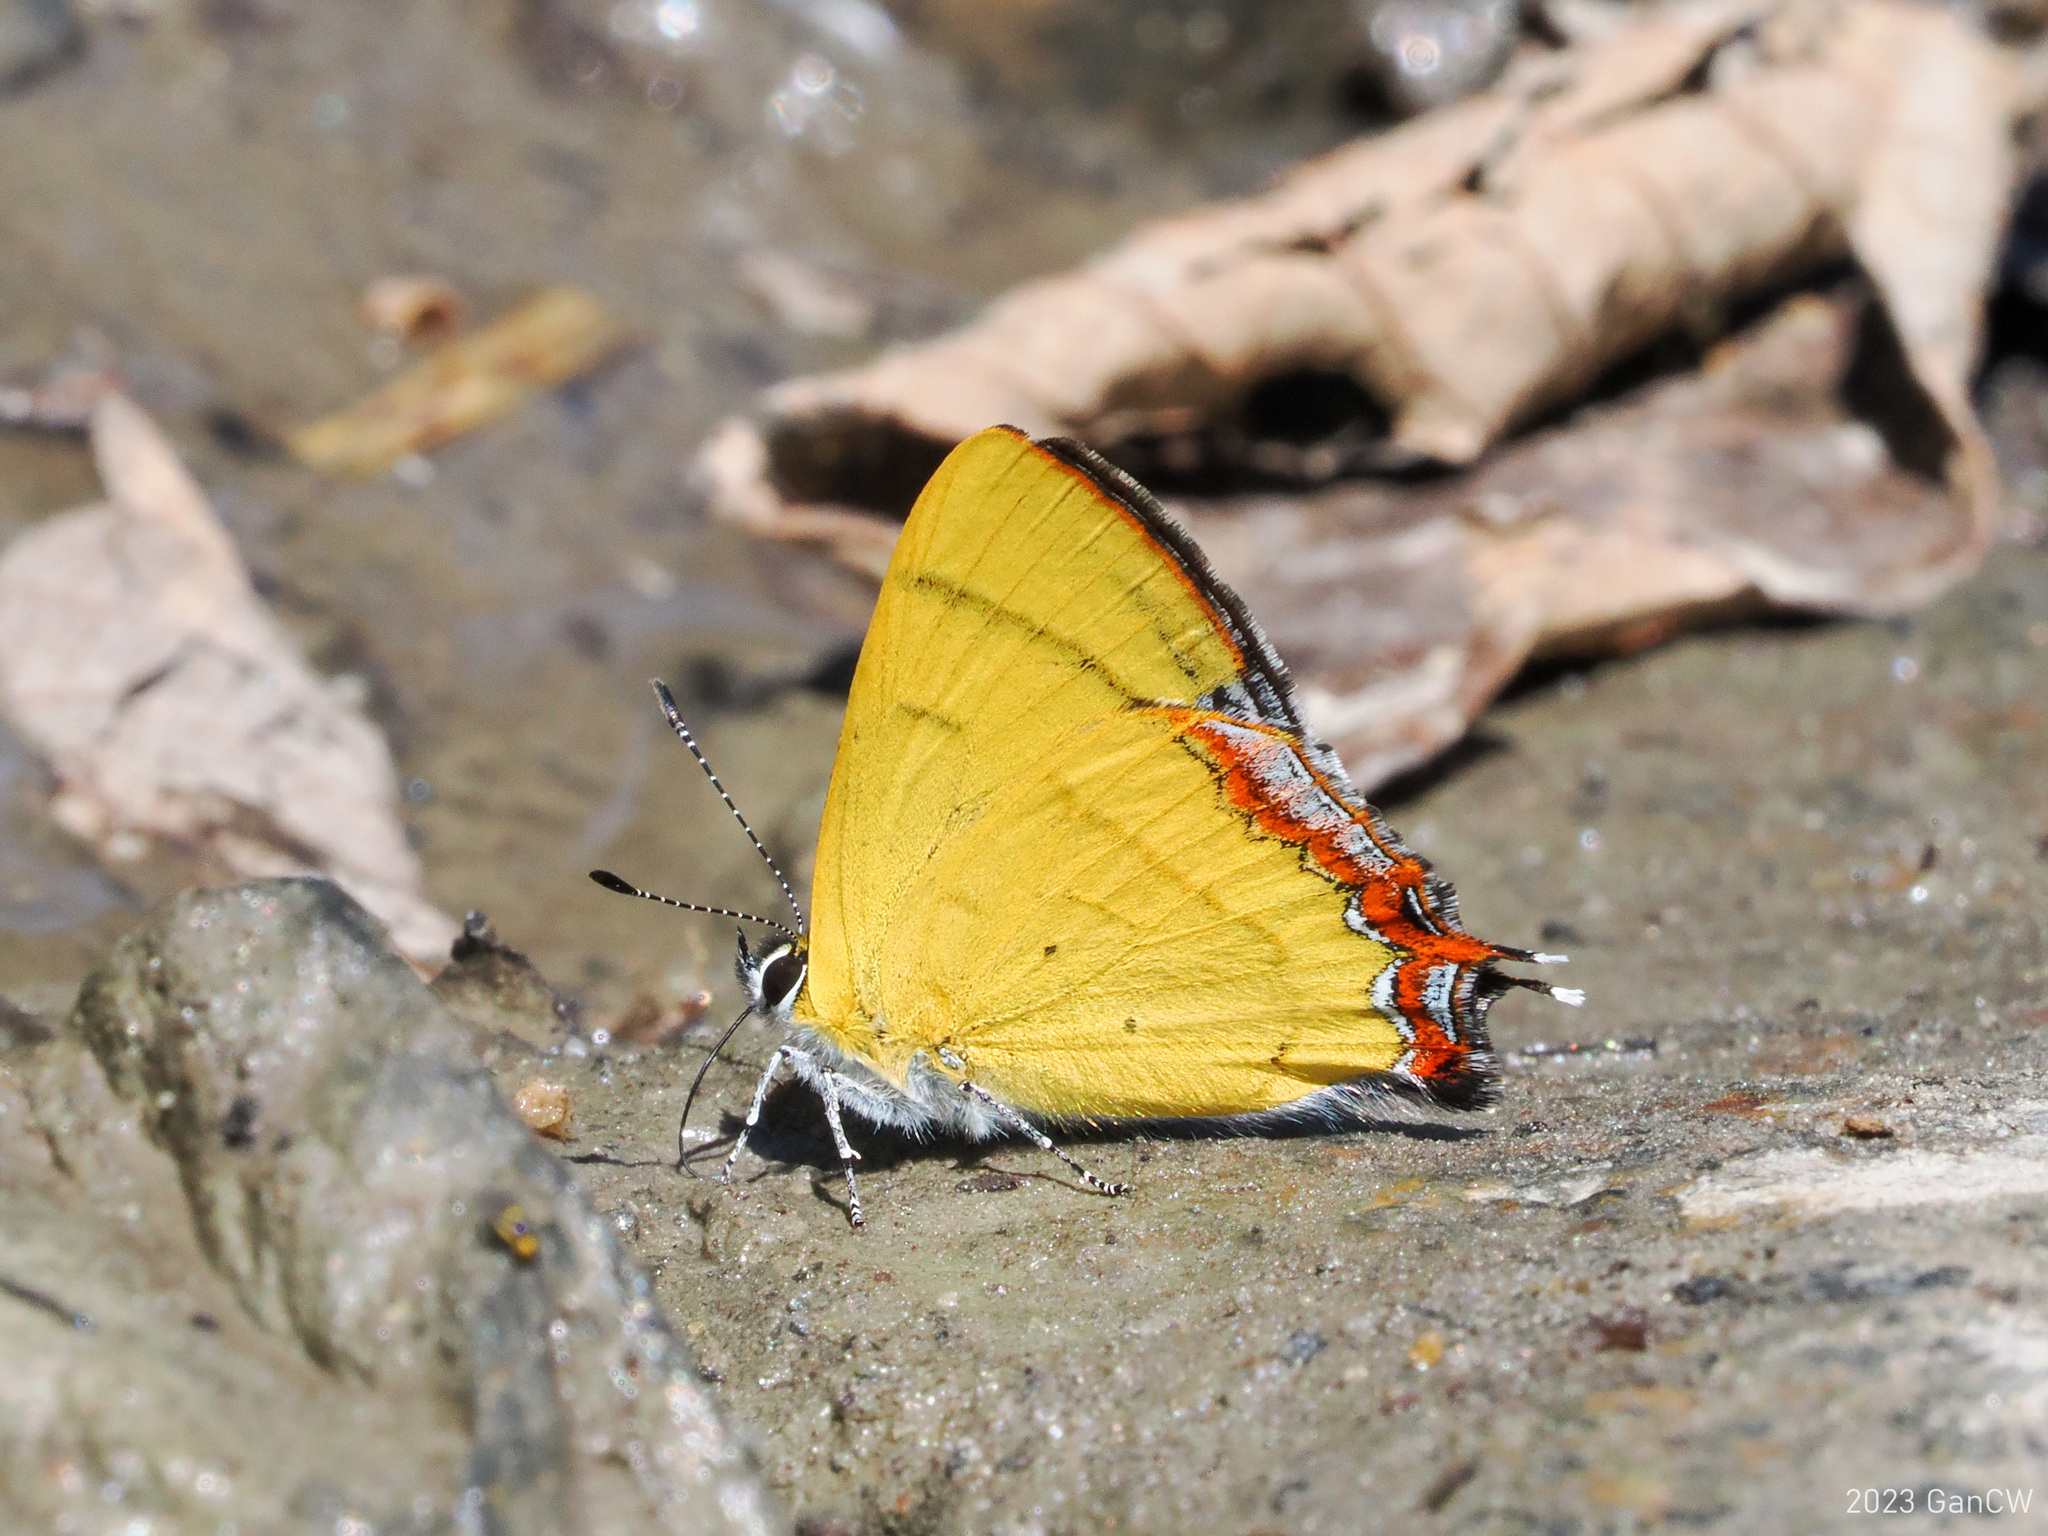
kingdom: Animalia
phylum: Arthropoda
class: Insecta
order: Lepidoptera
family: Lycaenidae
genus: Heliophorus
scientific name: Heliophorus tamu
